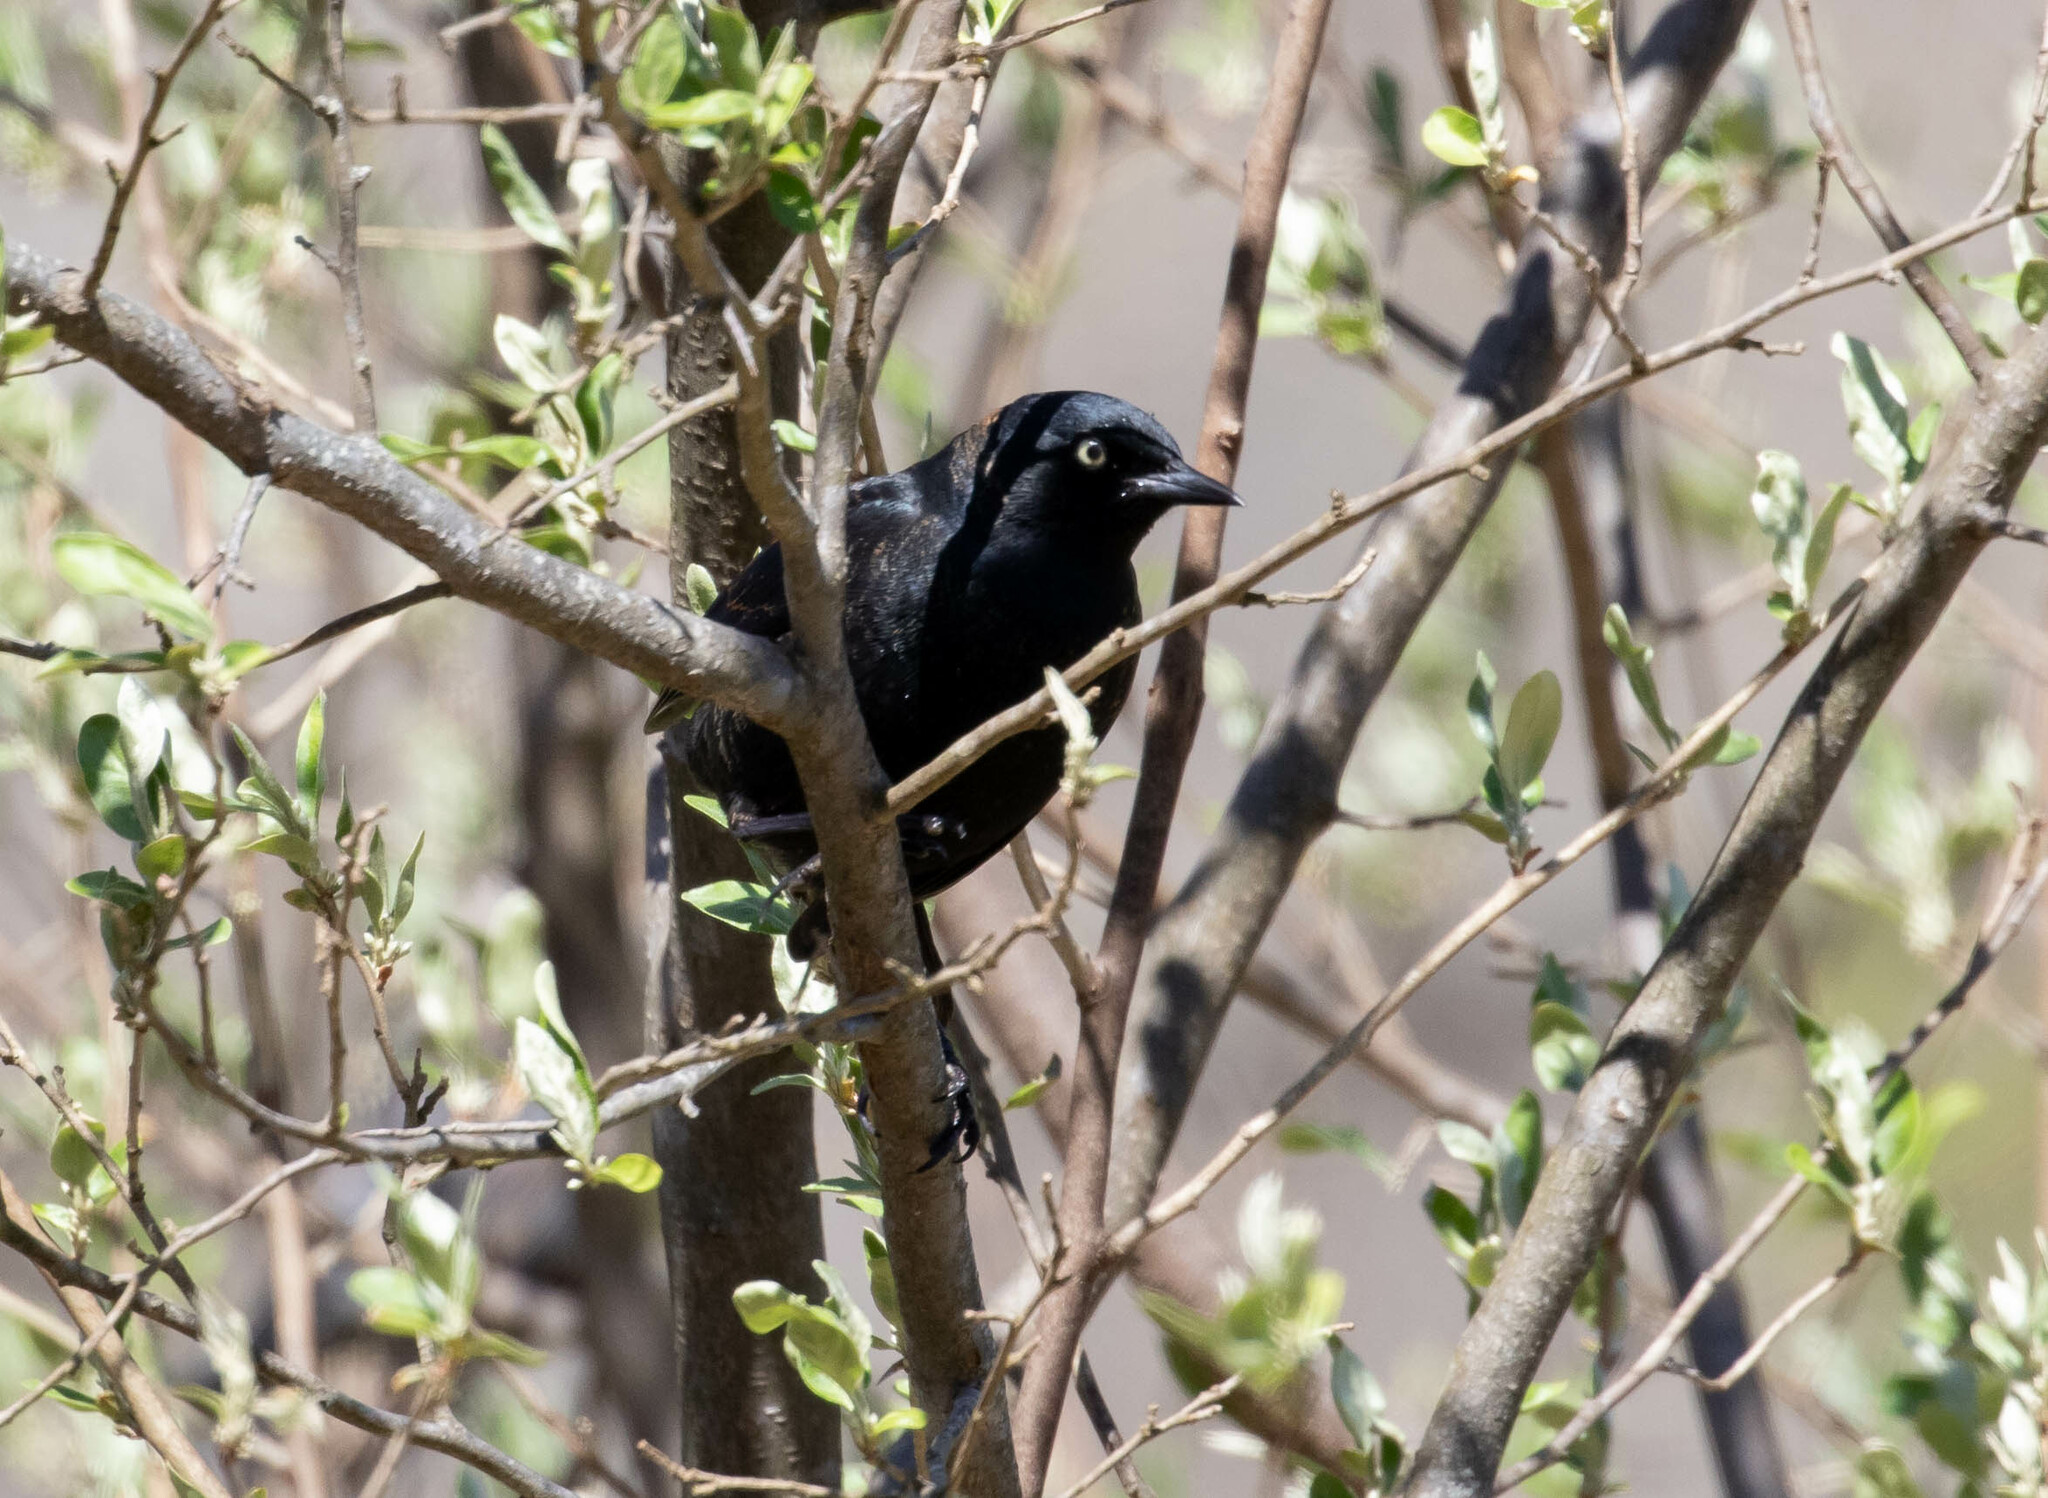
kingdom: Animalia
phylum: Chordata
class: Aves
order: Passeriformes
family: Icteridae
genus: Euphagus
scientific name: Euphagus carolinus
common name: Rusty blackbird
